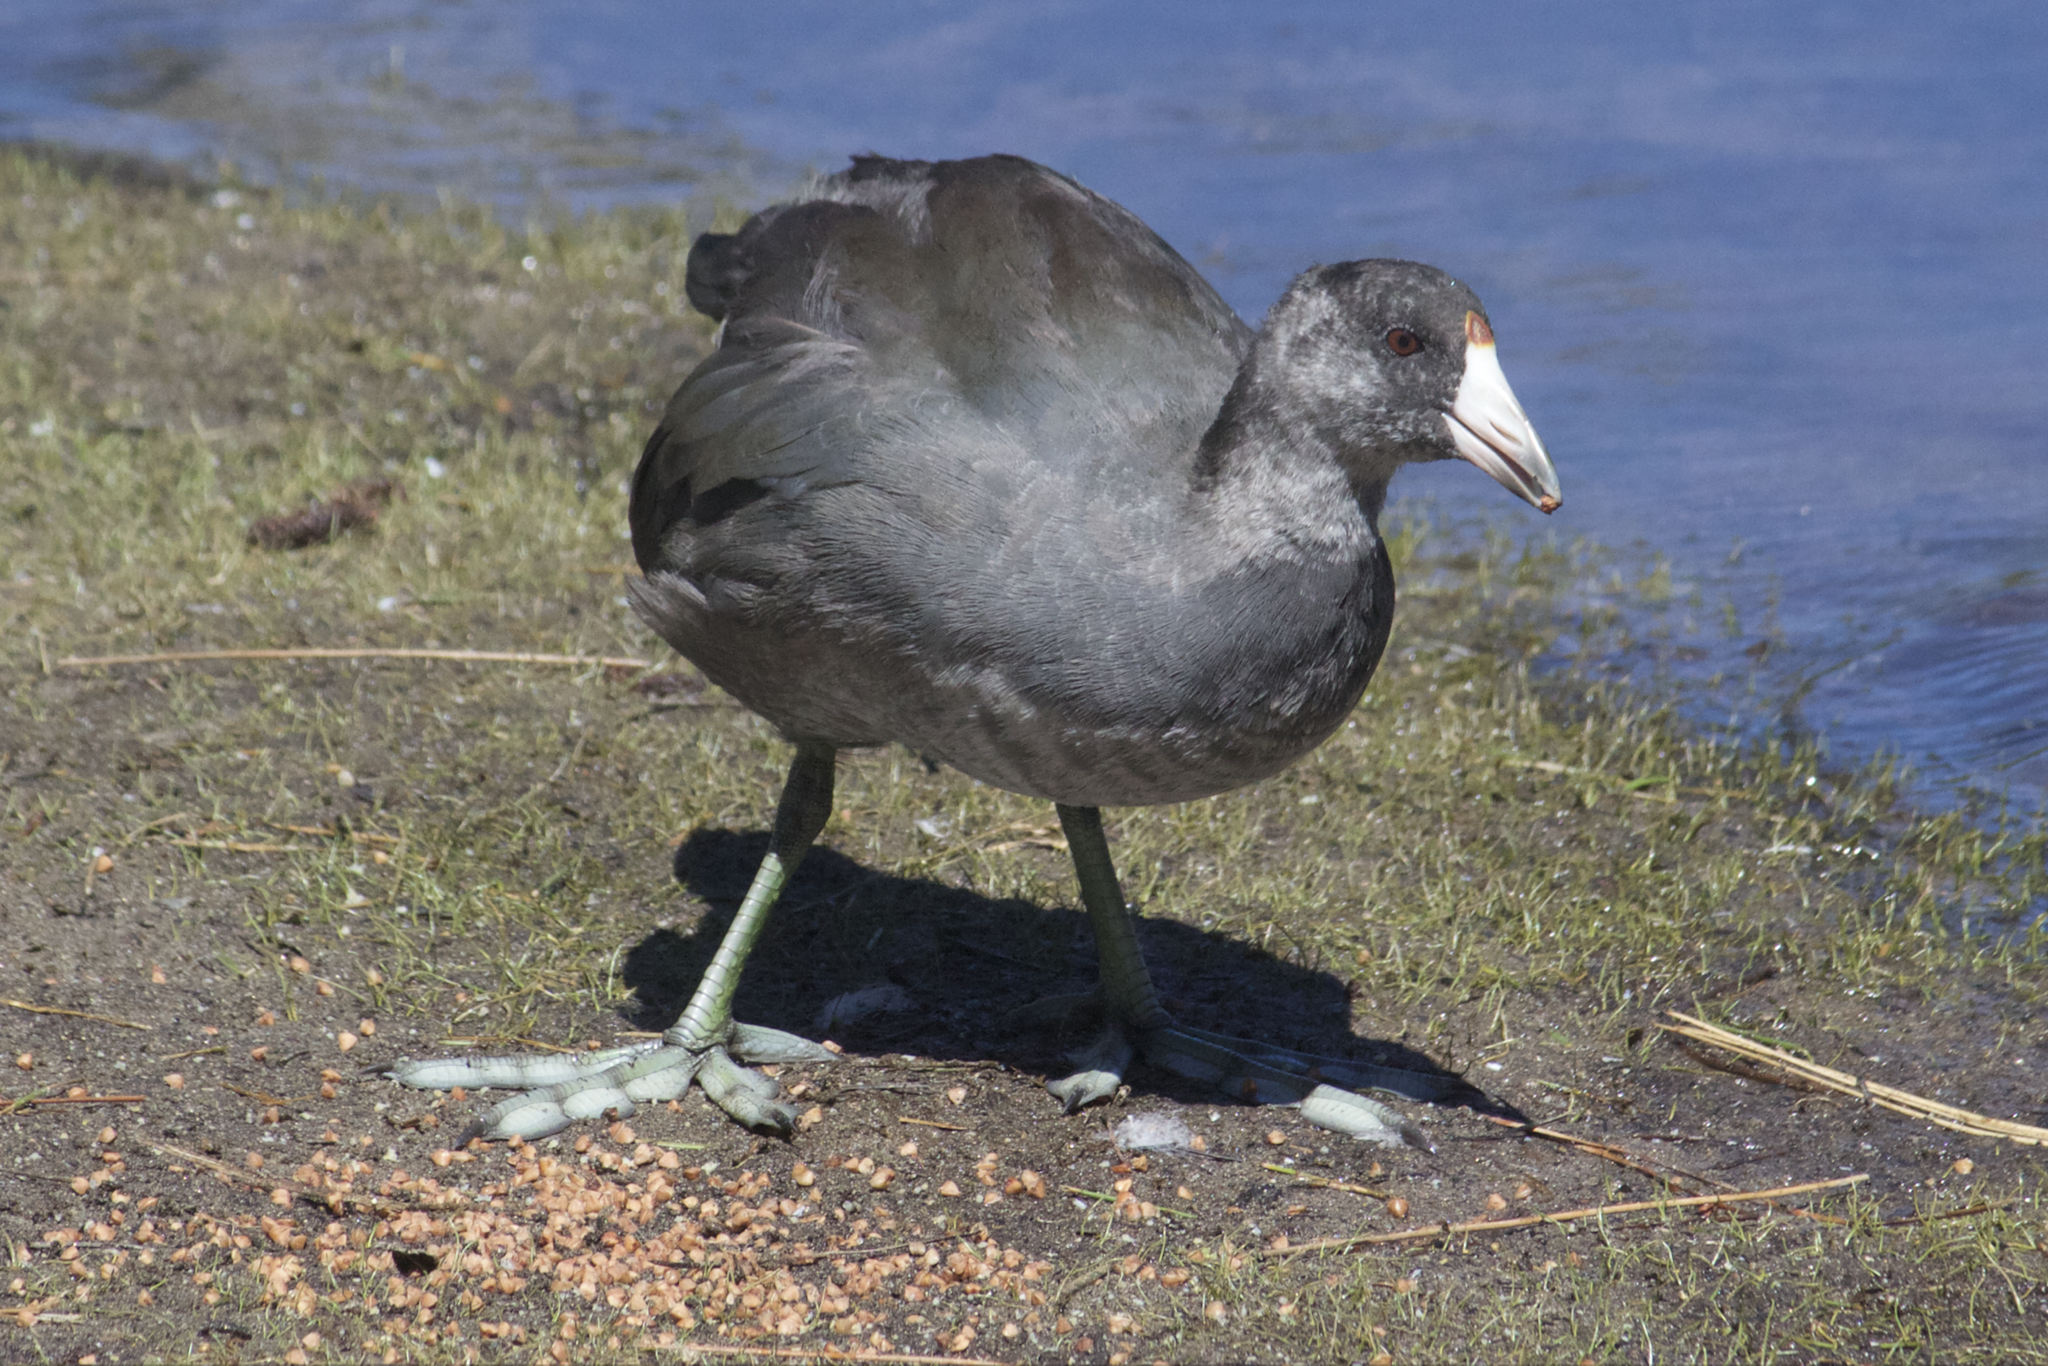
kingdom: Animalia
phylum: Chordata
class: Aves
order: Gruiformes
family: Rallidae
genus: Fulica
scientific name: Fulica americana
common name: American coot
